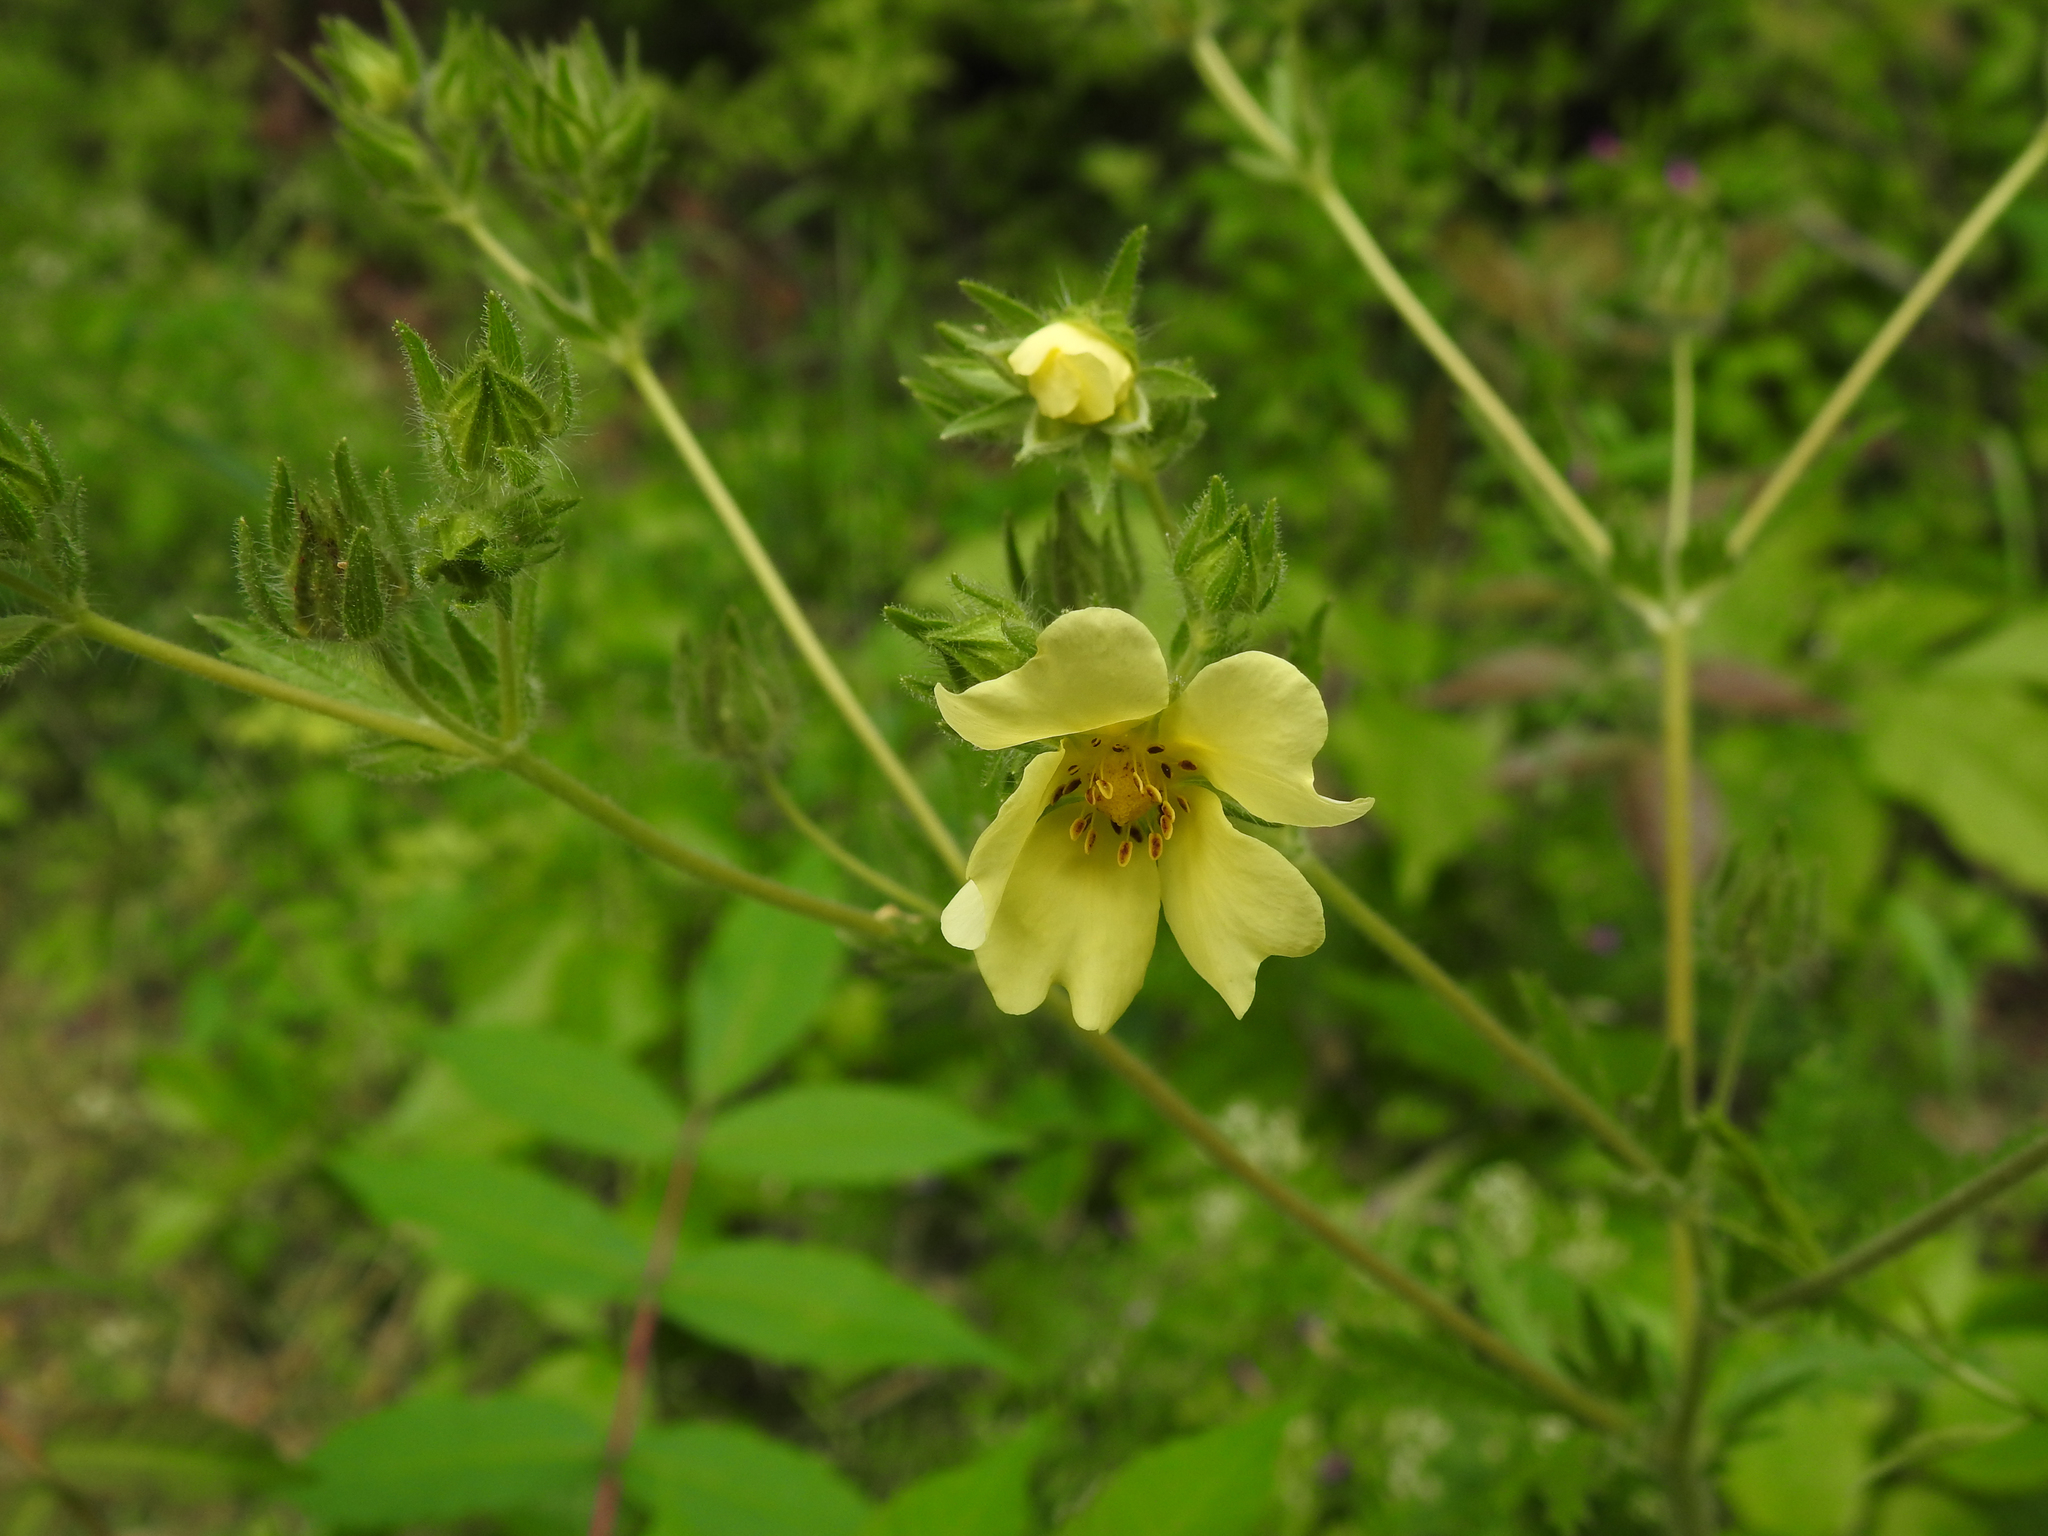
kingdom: Plantae
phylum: Tracheophyta
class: Magnoliopsida
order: Rosales
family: Rosaceae
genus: Potentilla
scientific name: Potentilla recta
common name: Sulphur cinquefoil
